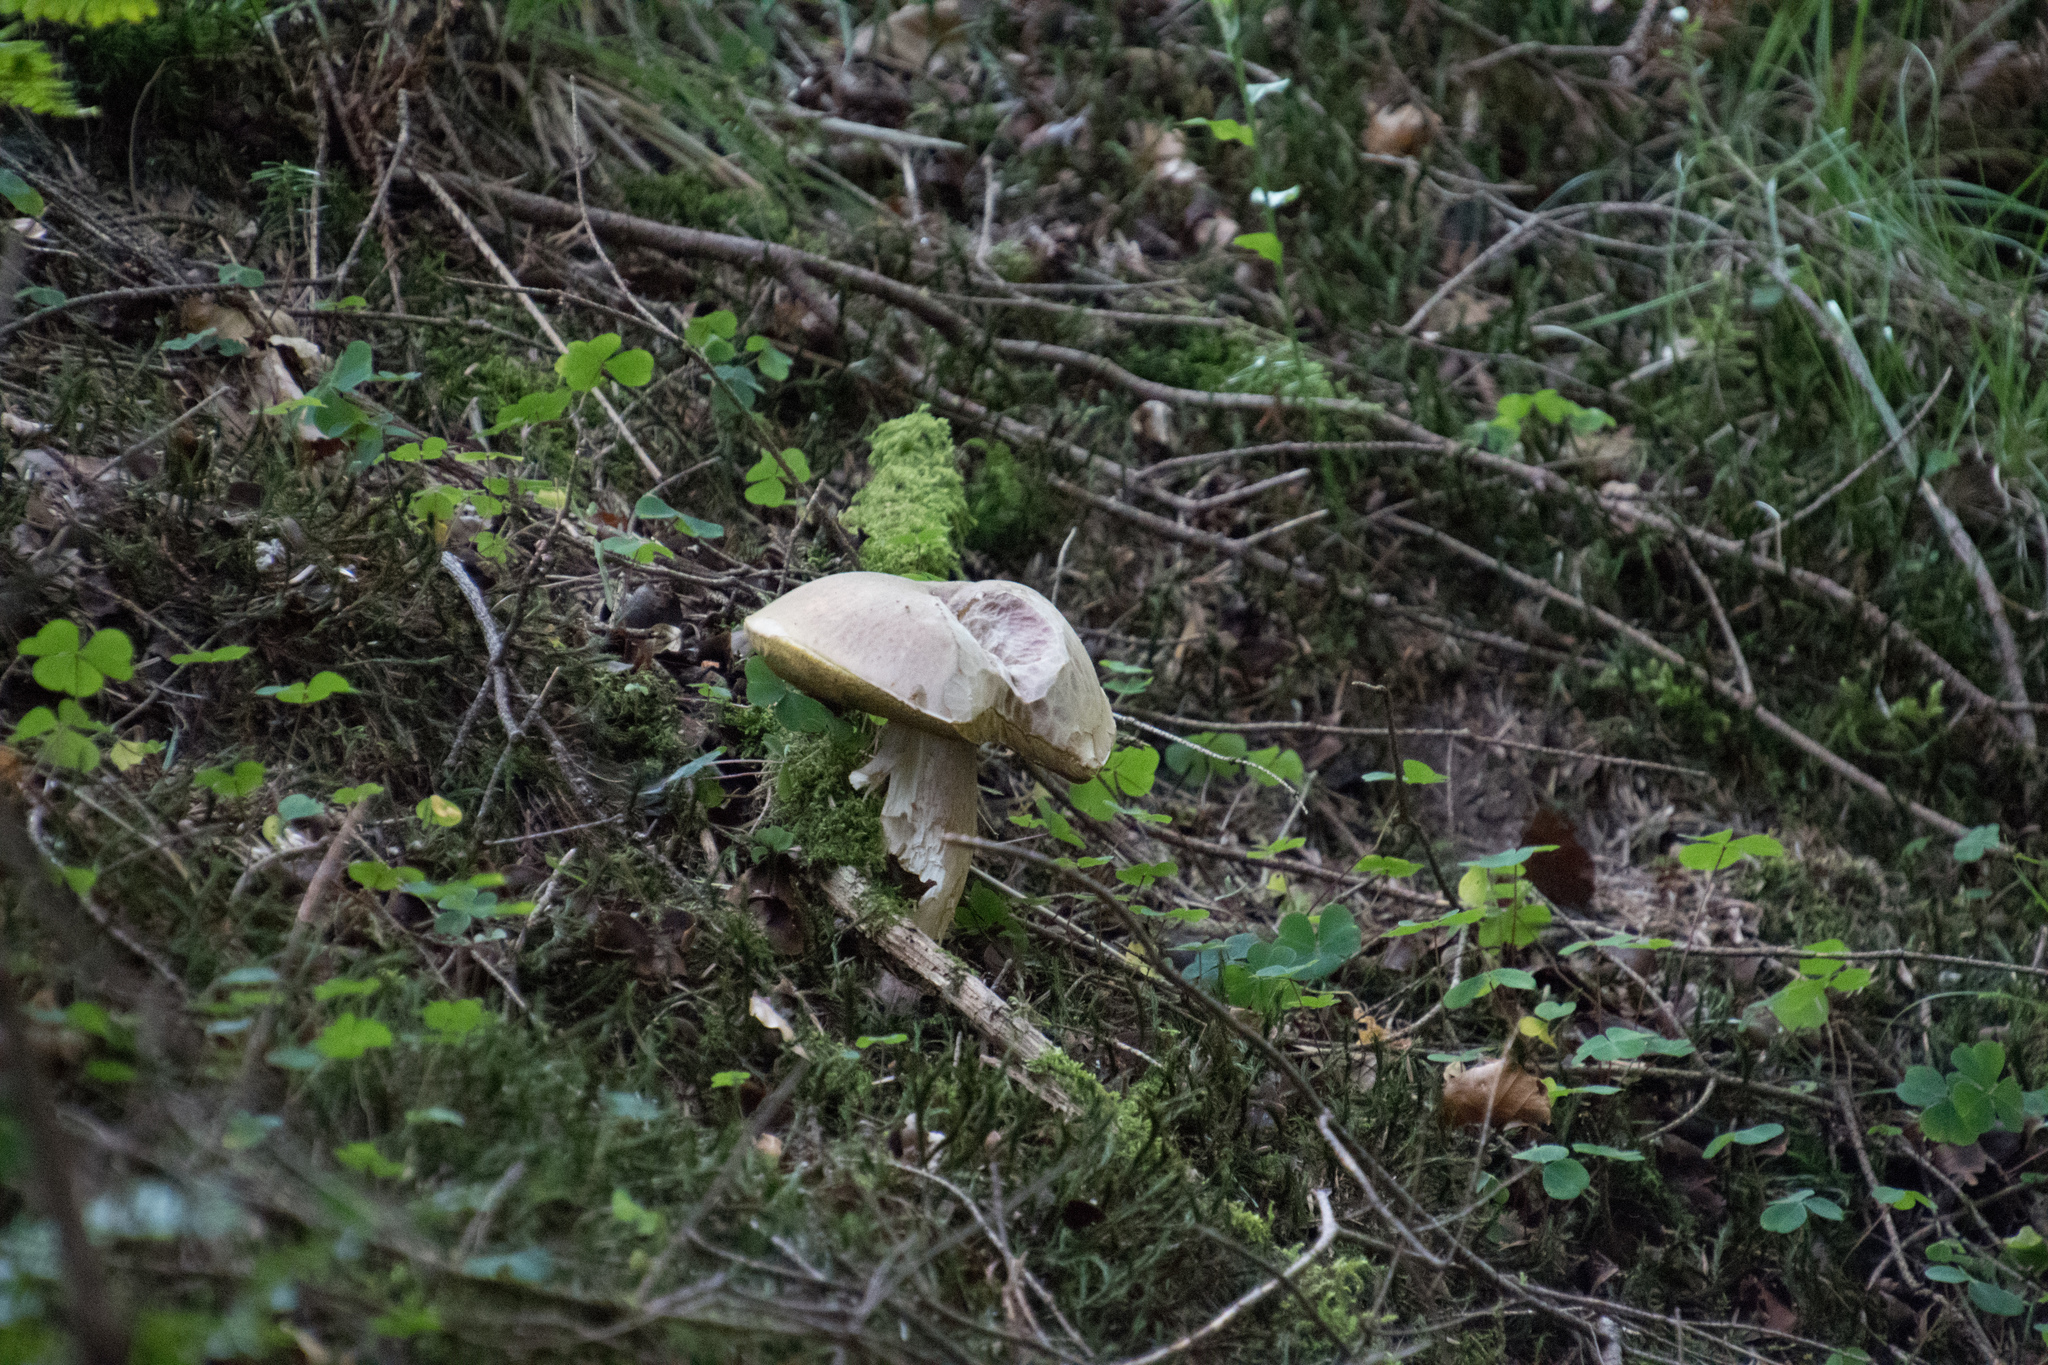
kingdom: Fungi
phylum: Basidiomycota
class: Agaricomycetes
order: Boletales
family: Boletaceae
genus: Boletus
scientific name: Boletus edulis
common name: Cep
